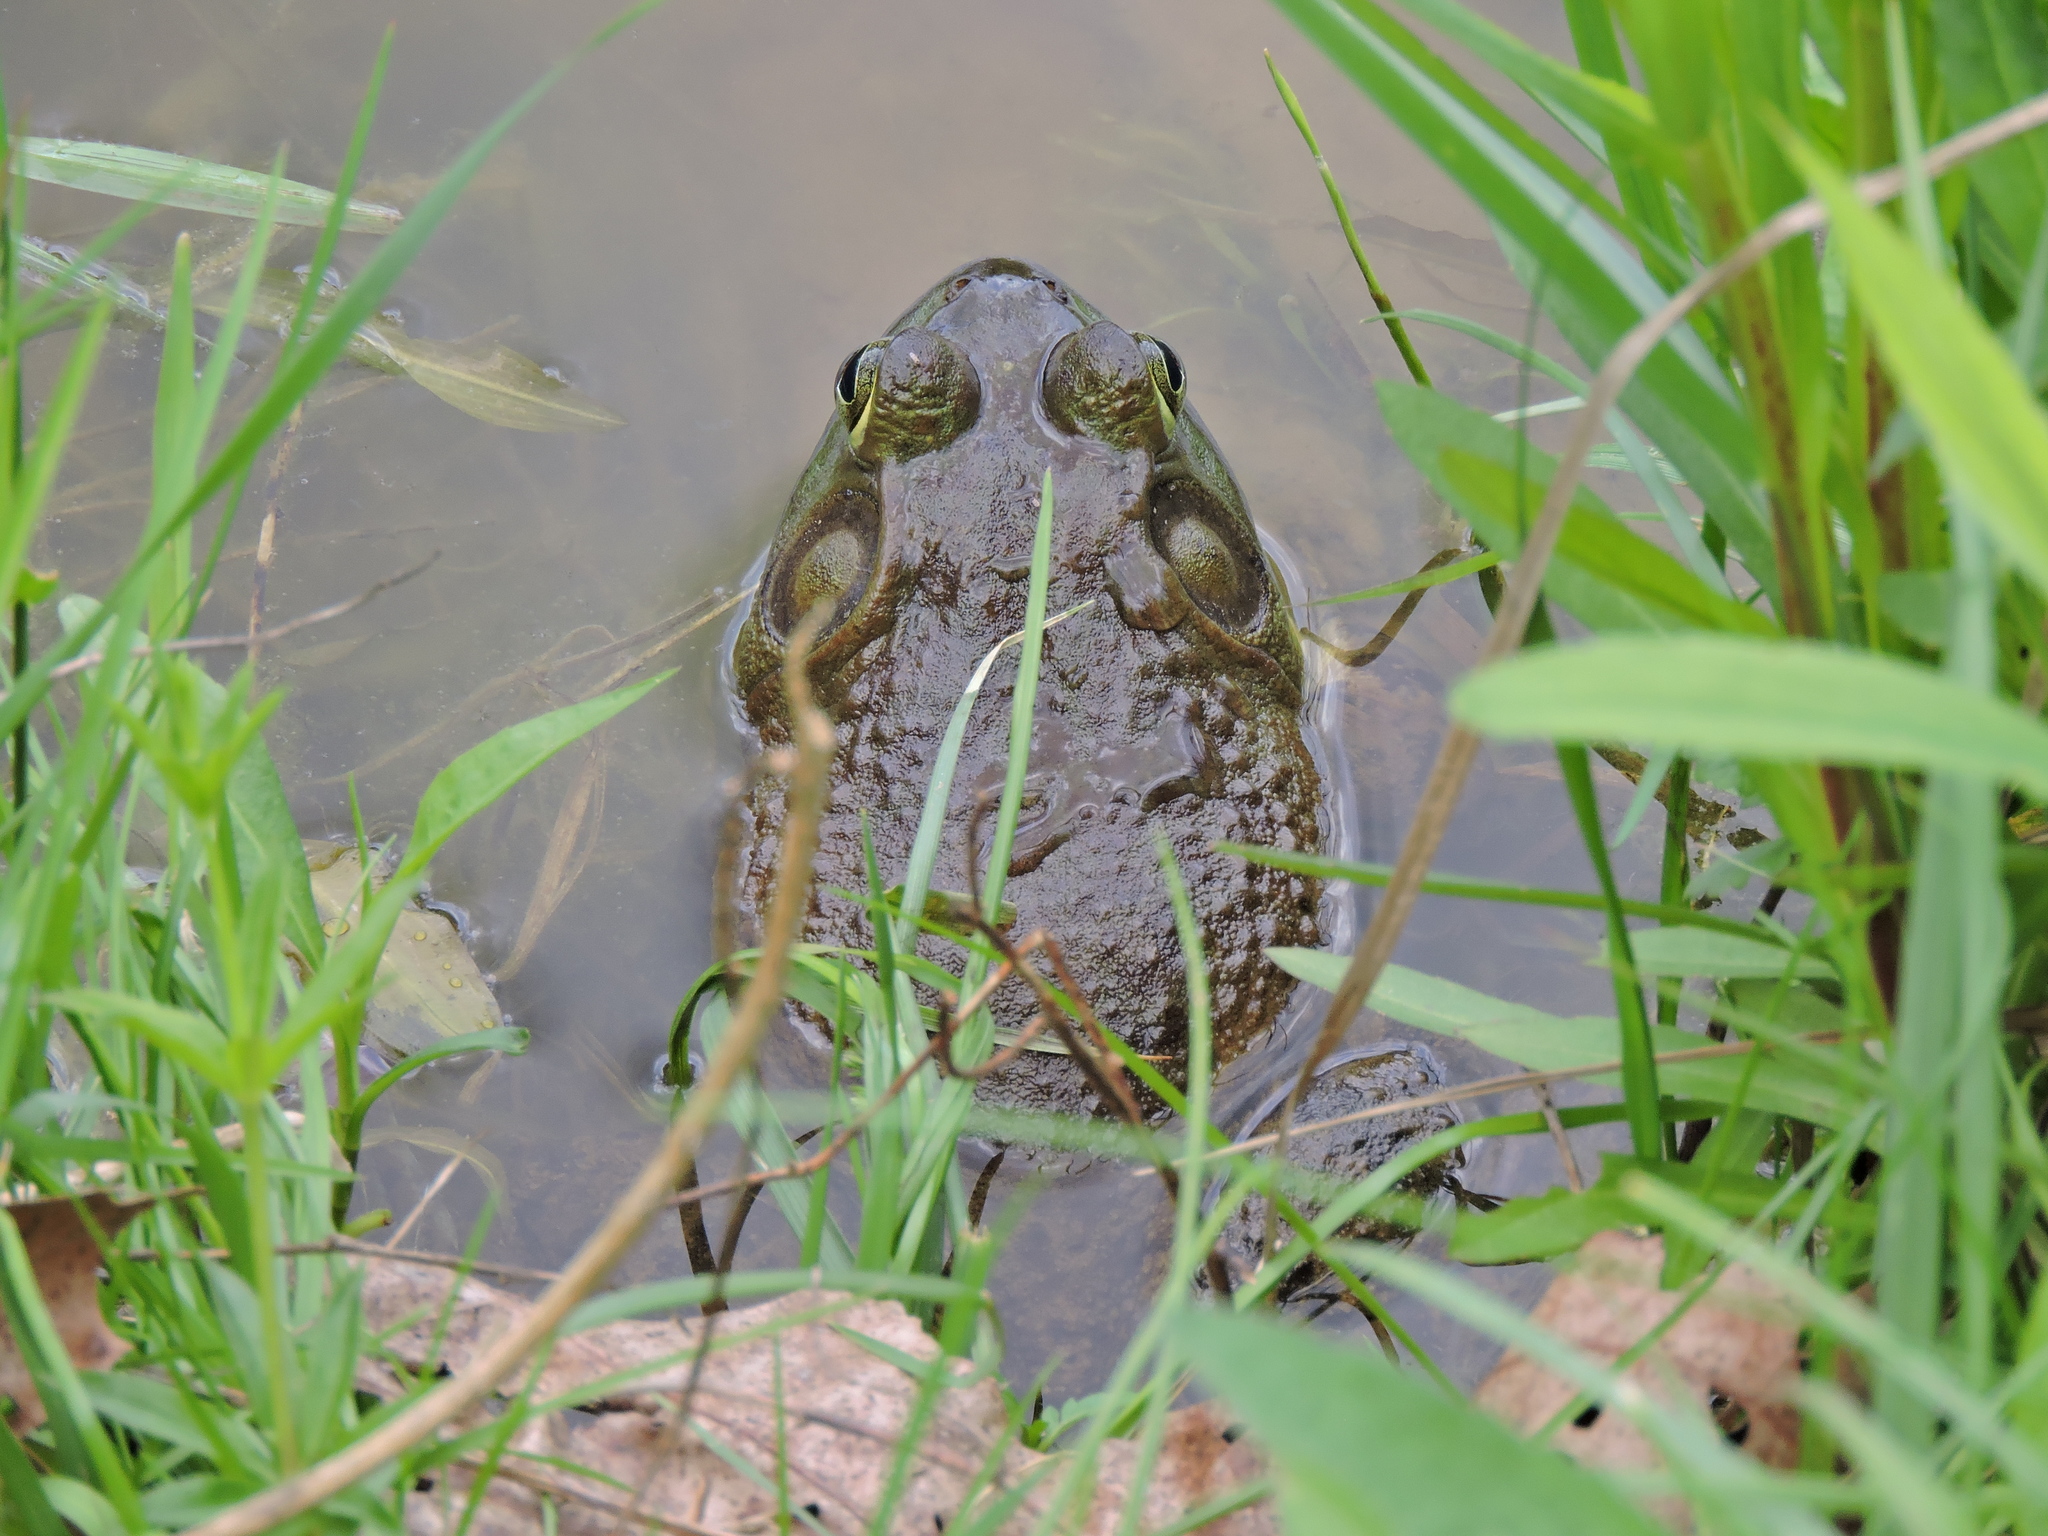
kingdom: Animalia
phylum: Chordata
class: Amphibia
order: Anura
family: Ranidae
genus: Lithobates
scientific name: Lithobates catesbeianus
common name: American bullfrog
